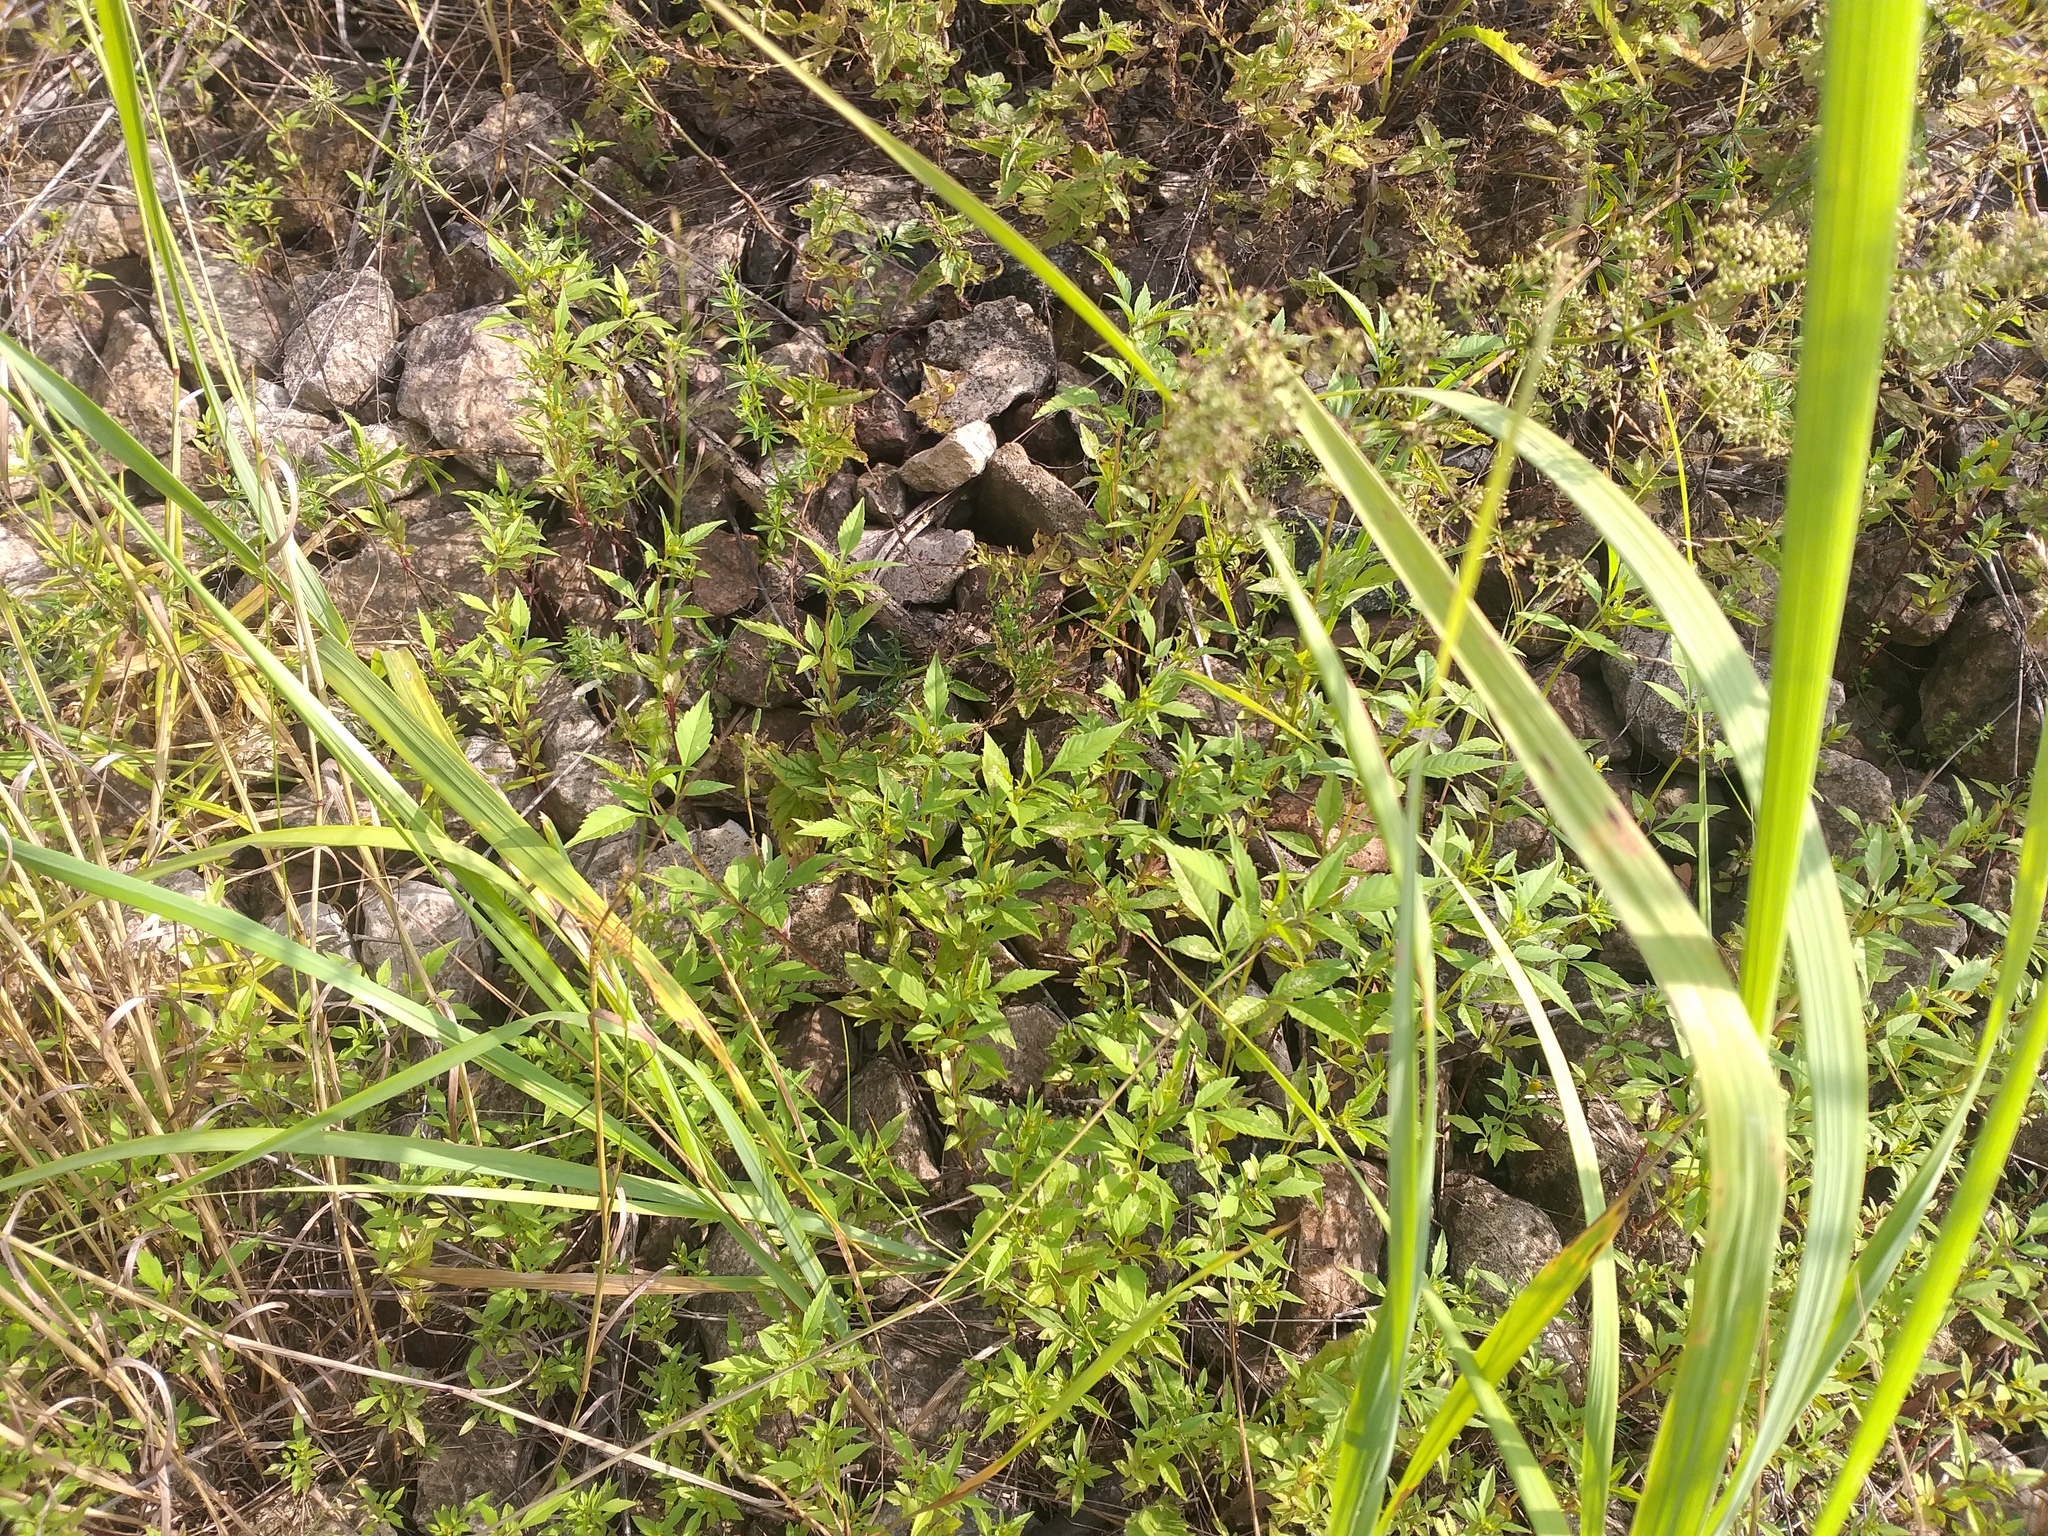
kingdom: Plantae
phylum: Tracheophyta
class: Magnoliopsida
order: Asterales
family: Asteraceae
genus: Bidens
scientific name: Bidens frondosa
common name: Beggarticks
